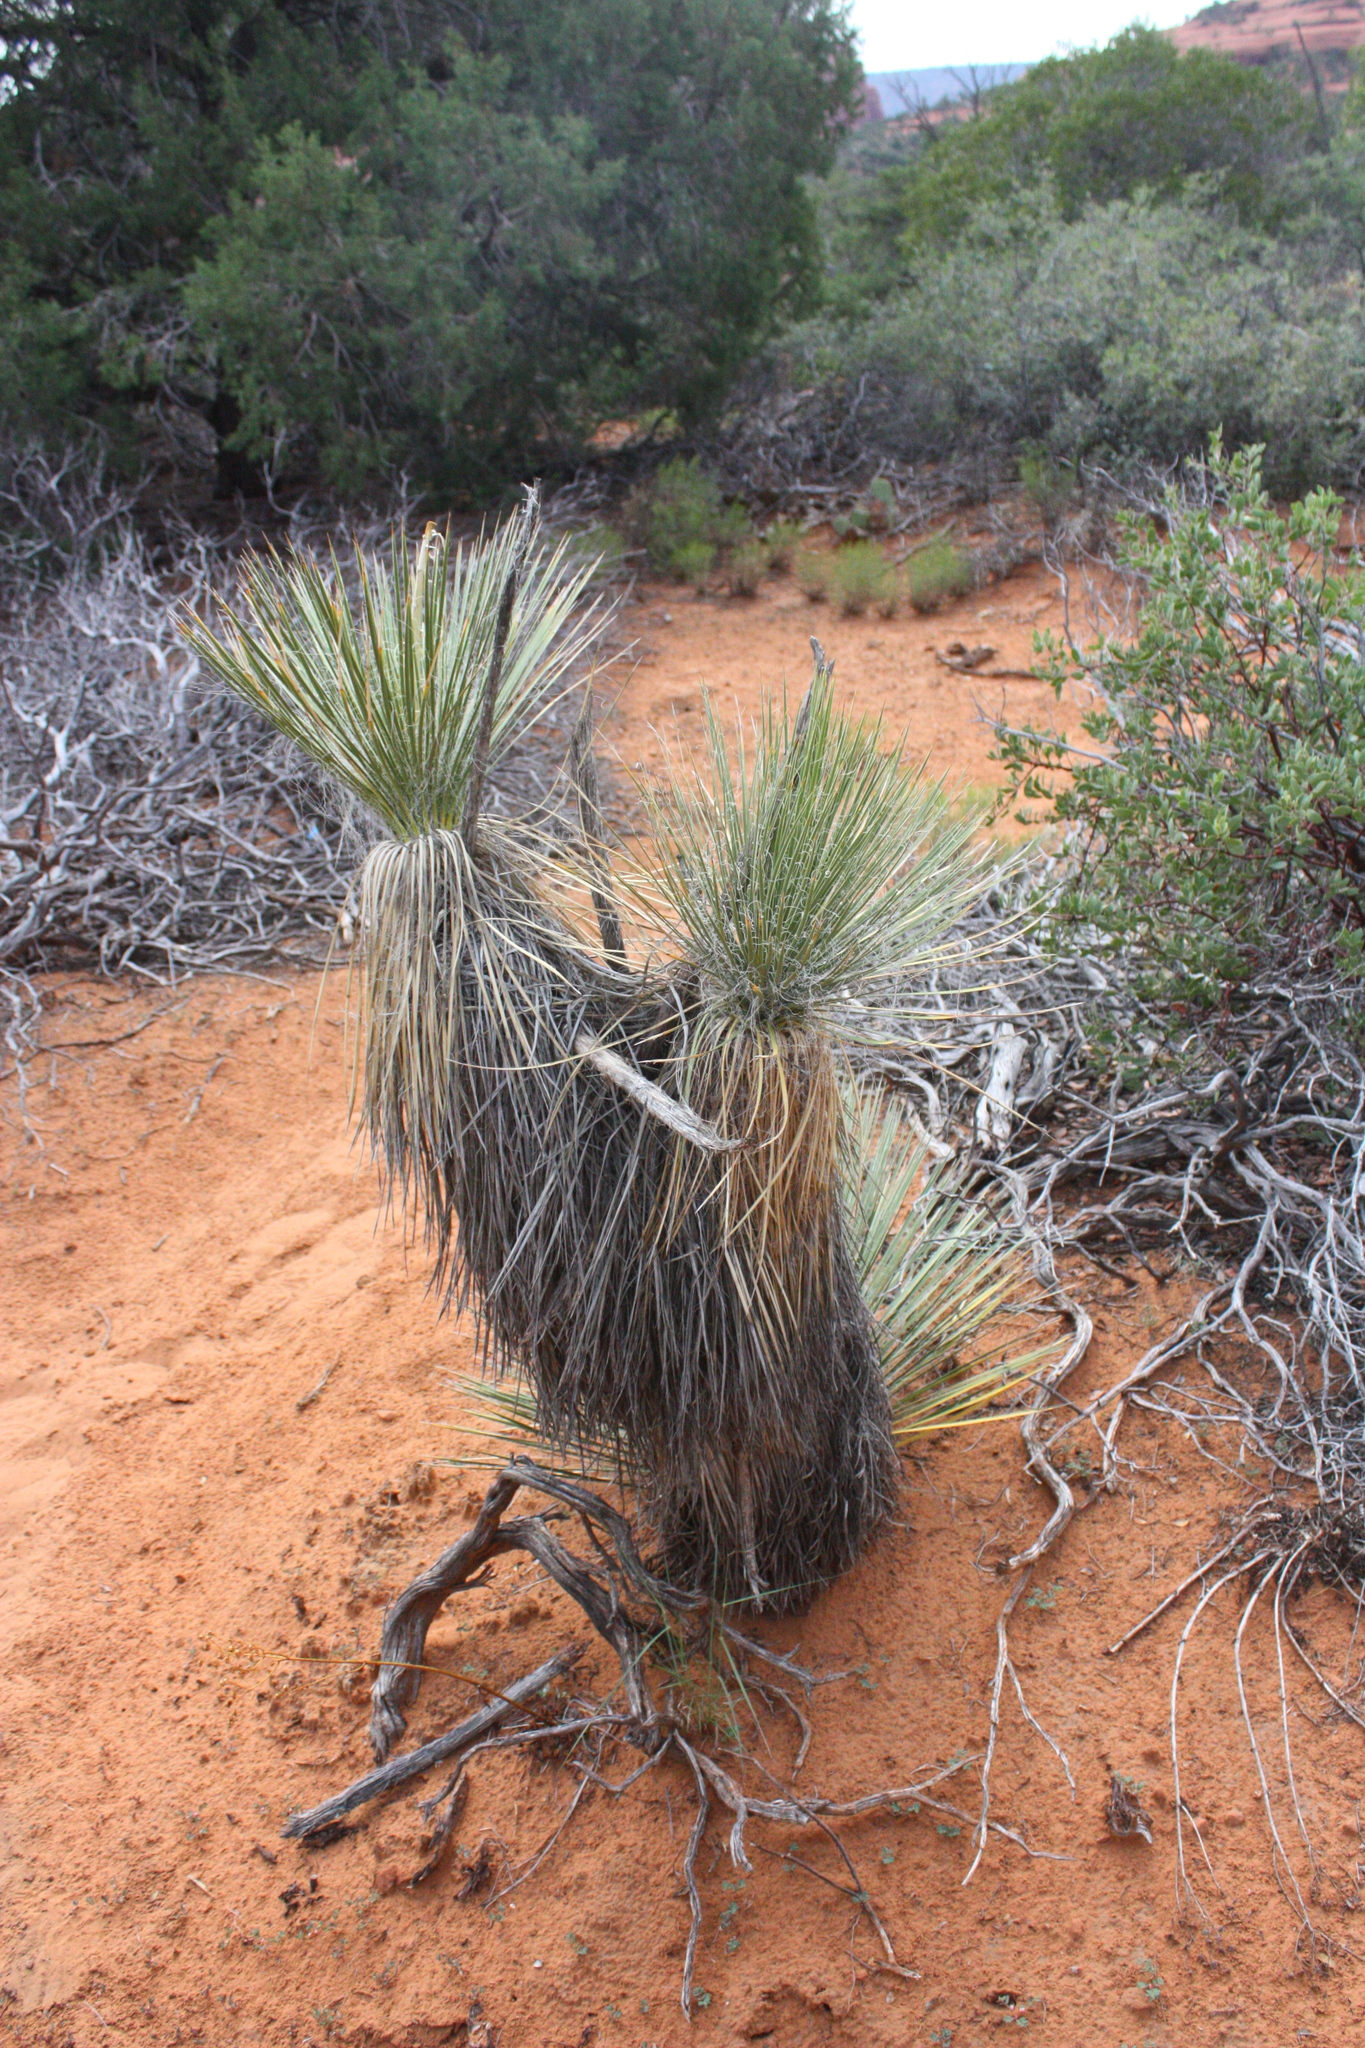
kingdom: Plantae
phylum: Tracheophyta
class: Liliopsida
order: Asparagales
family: Asparagaceae
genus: Yucca
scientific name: Yucca angustissima
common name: Narrowleaf yucca
